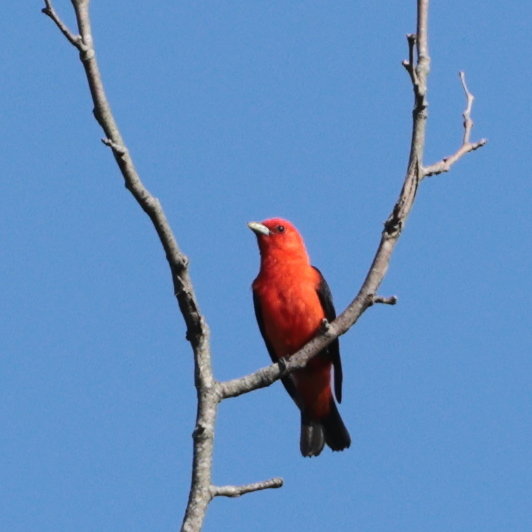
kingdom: Animalia
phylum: Chordata
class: Aves
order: Passeriformes
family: Cardinalidae
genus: Piranga
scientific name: Piranga olivacea
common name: Scarlet tanager
